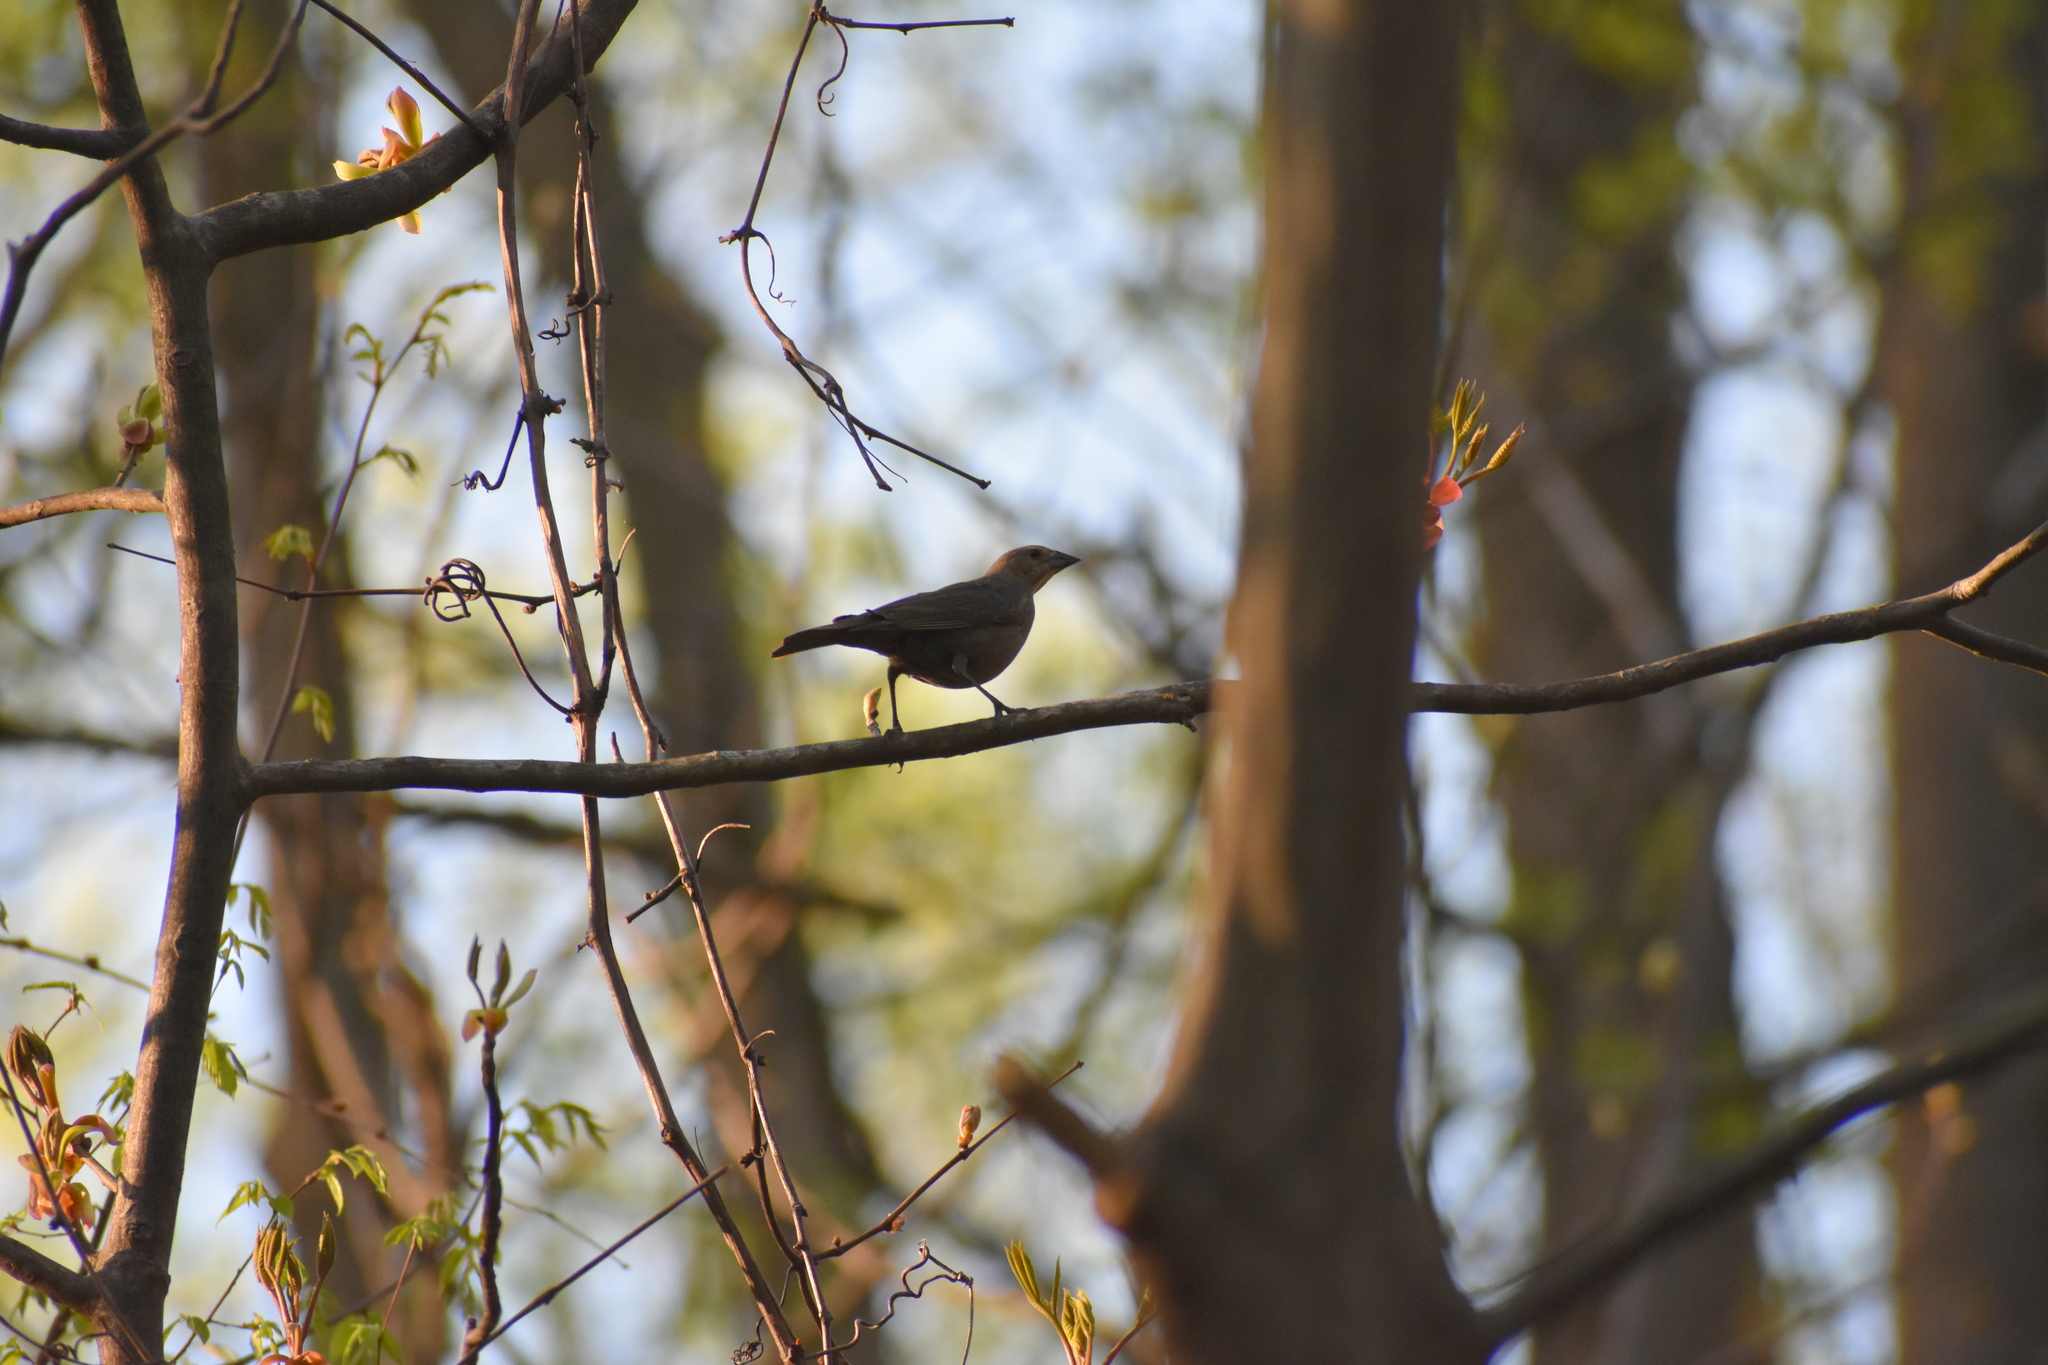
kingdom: Animalia
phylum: Chordata
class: Aves
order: Passeriformes
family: Icteridae
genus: Molothrus
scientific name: Molothrus ater
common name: Brown-headed cowbird
